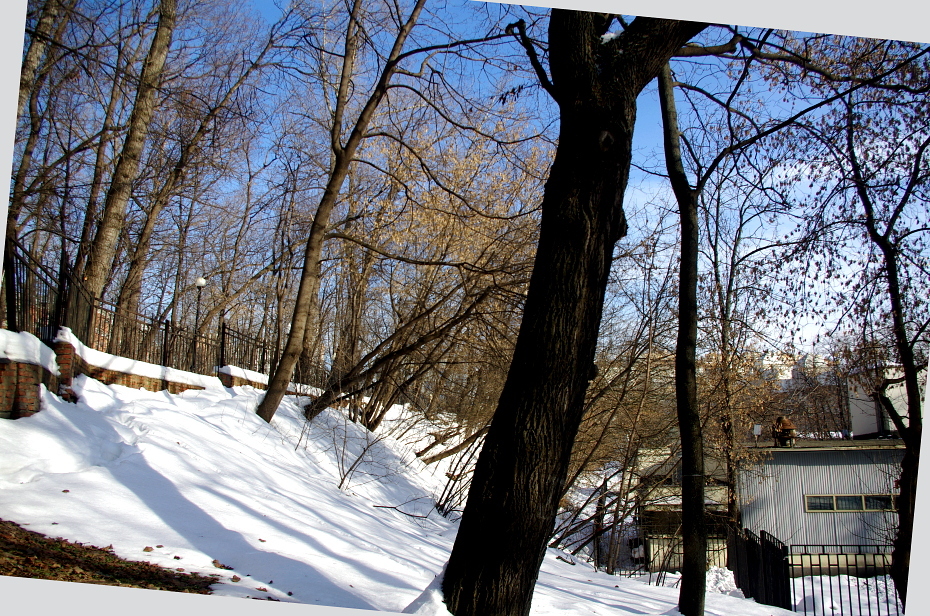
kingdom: Plantae
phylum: Tracheophyta
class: Magnoliopsida
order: Sapindales
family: Sapindaceae
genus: Acer
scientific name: Acer negundo
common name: Ashleaf maple
